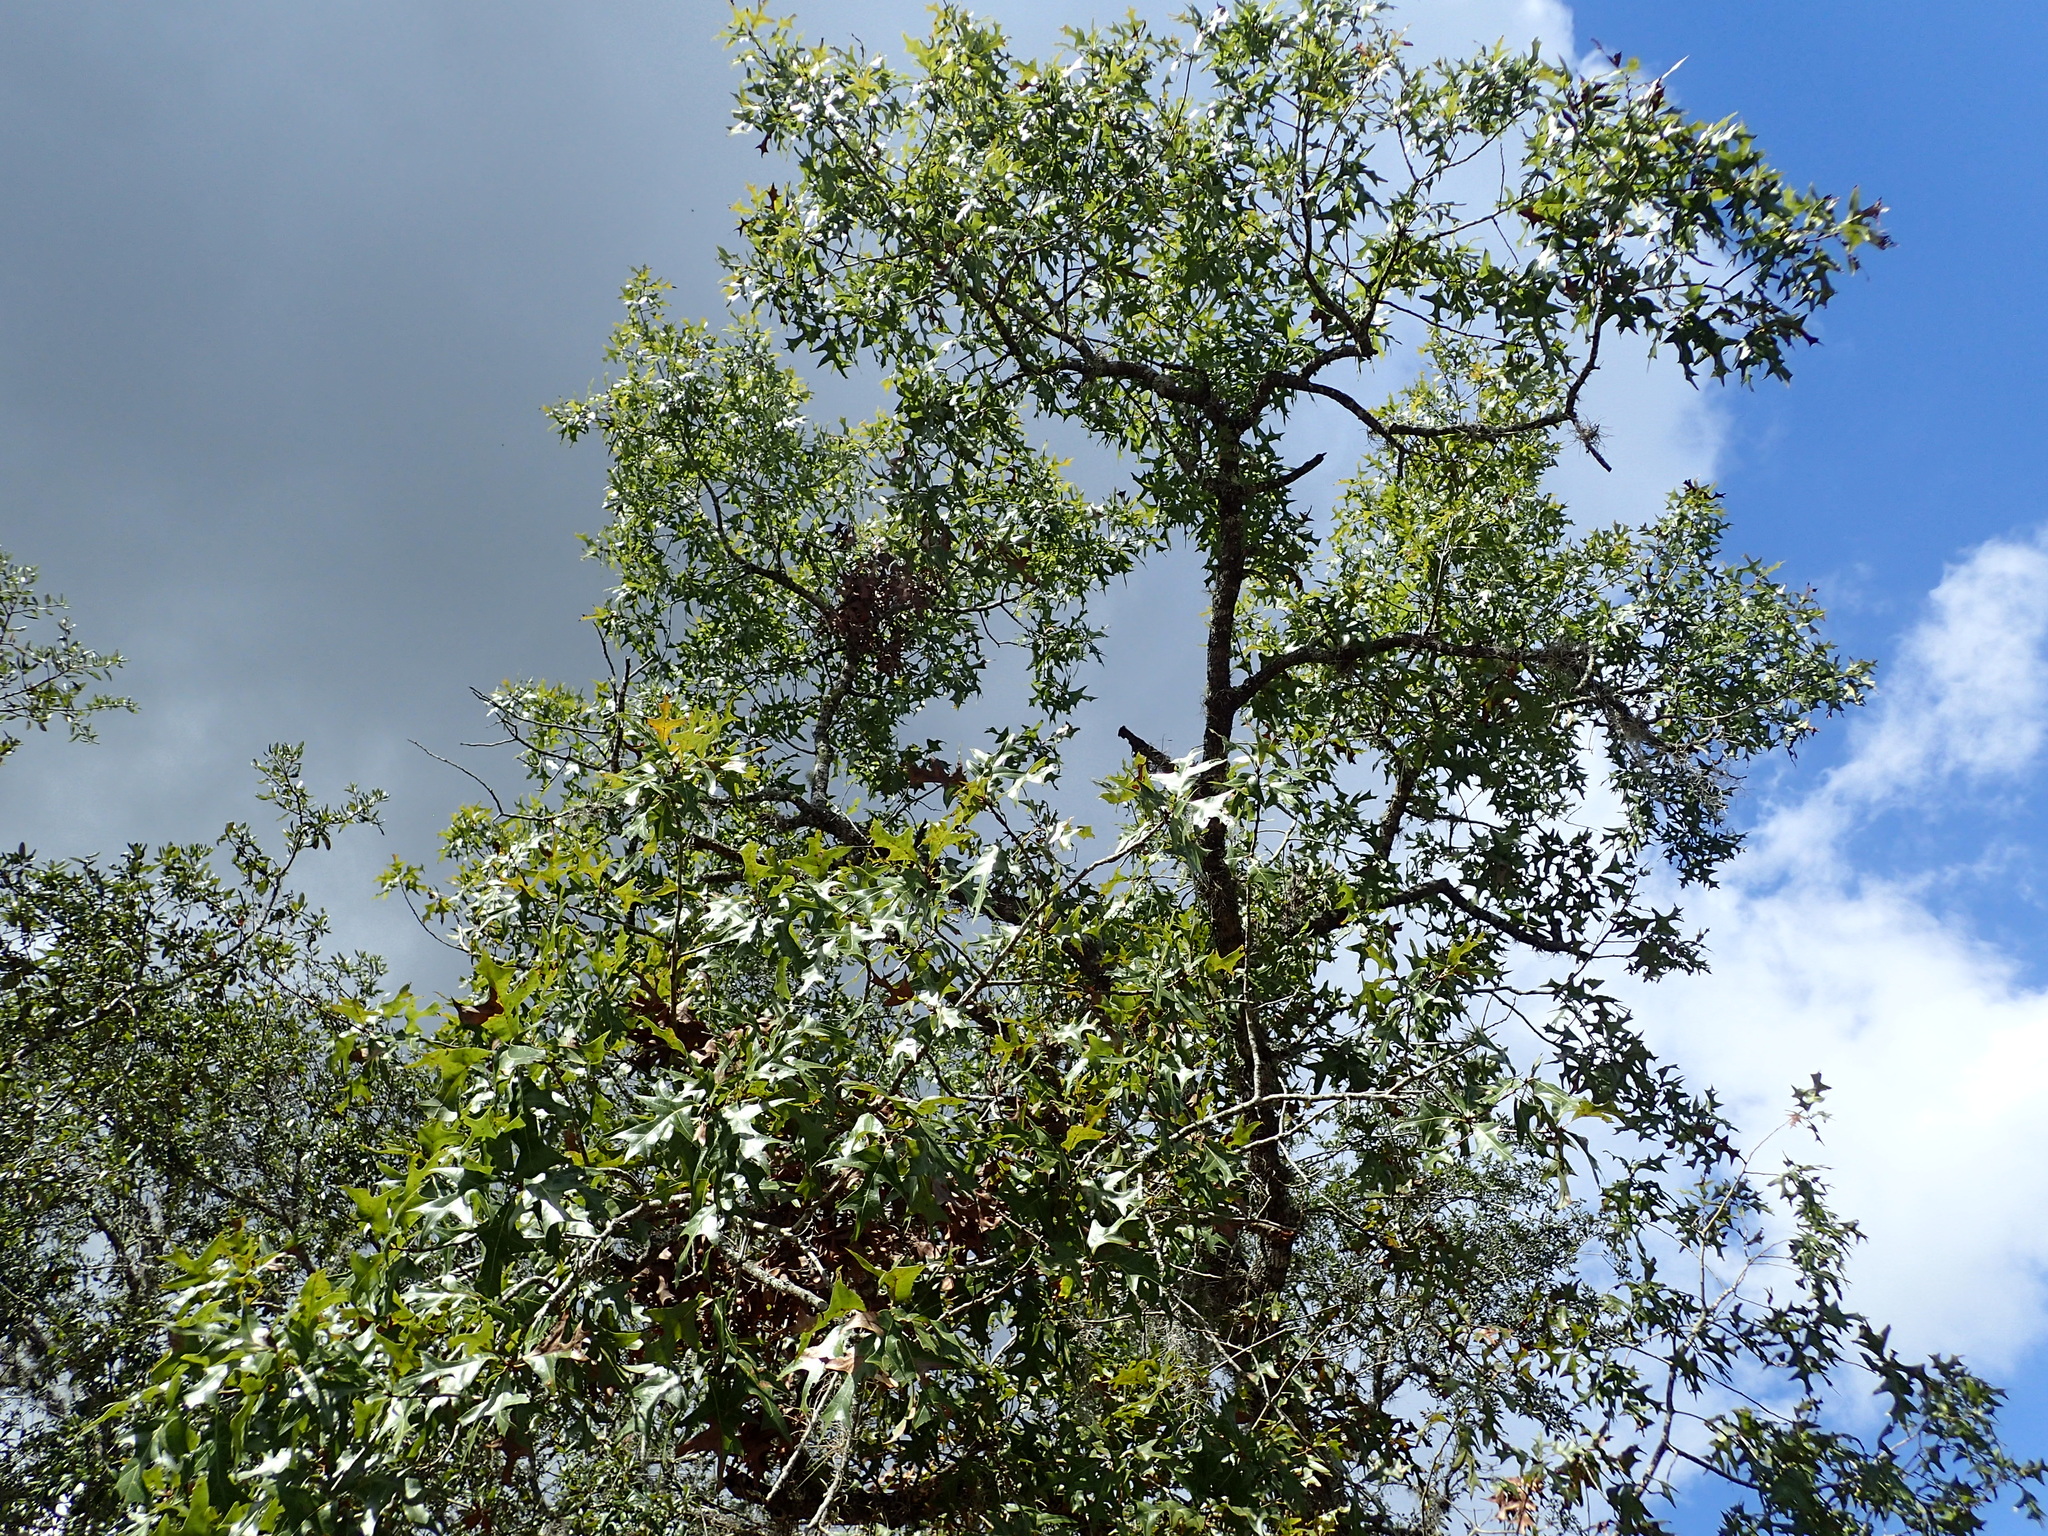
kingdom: Plantae
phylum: Tracheophyta
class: Magnoliopsida
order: Fagales
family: Fagaceae
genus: Quercus
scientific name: Quercus laevis
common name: Turkey oak
